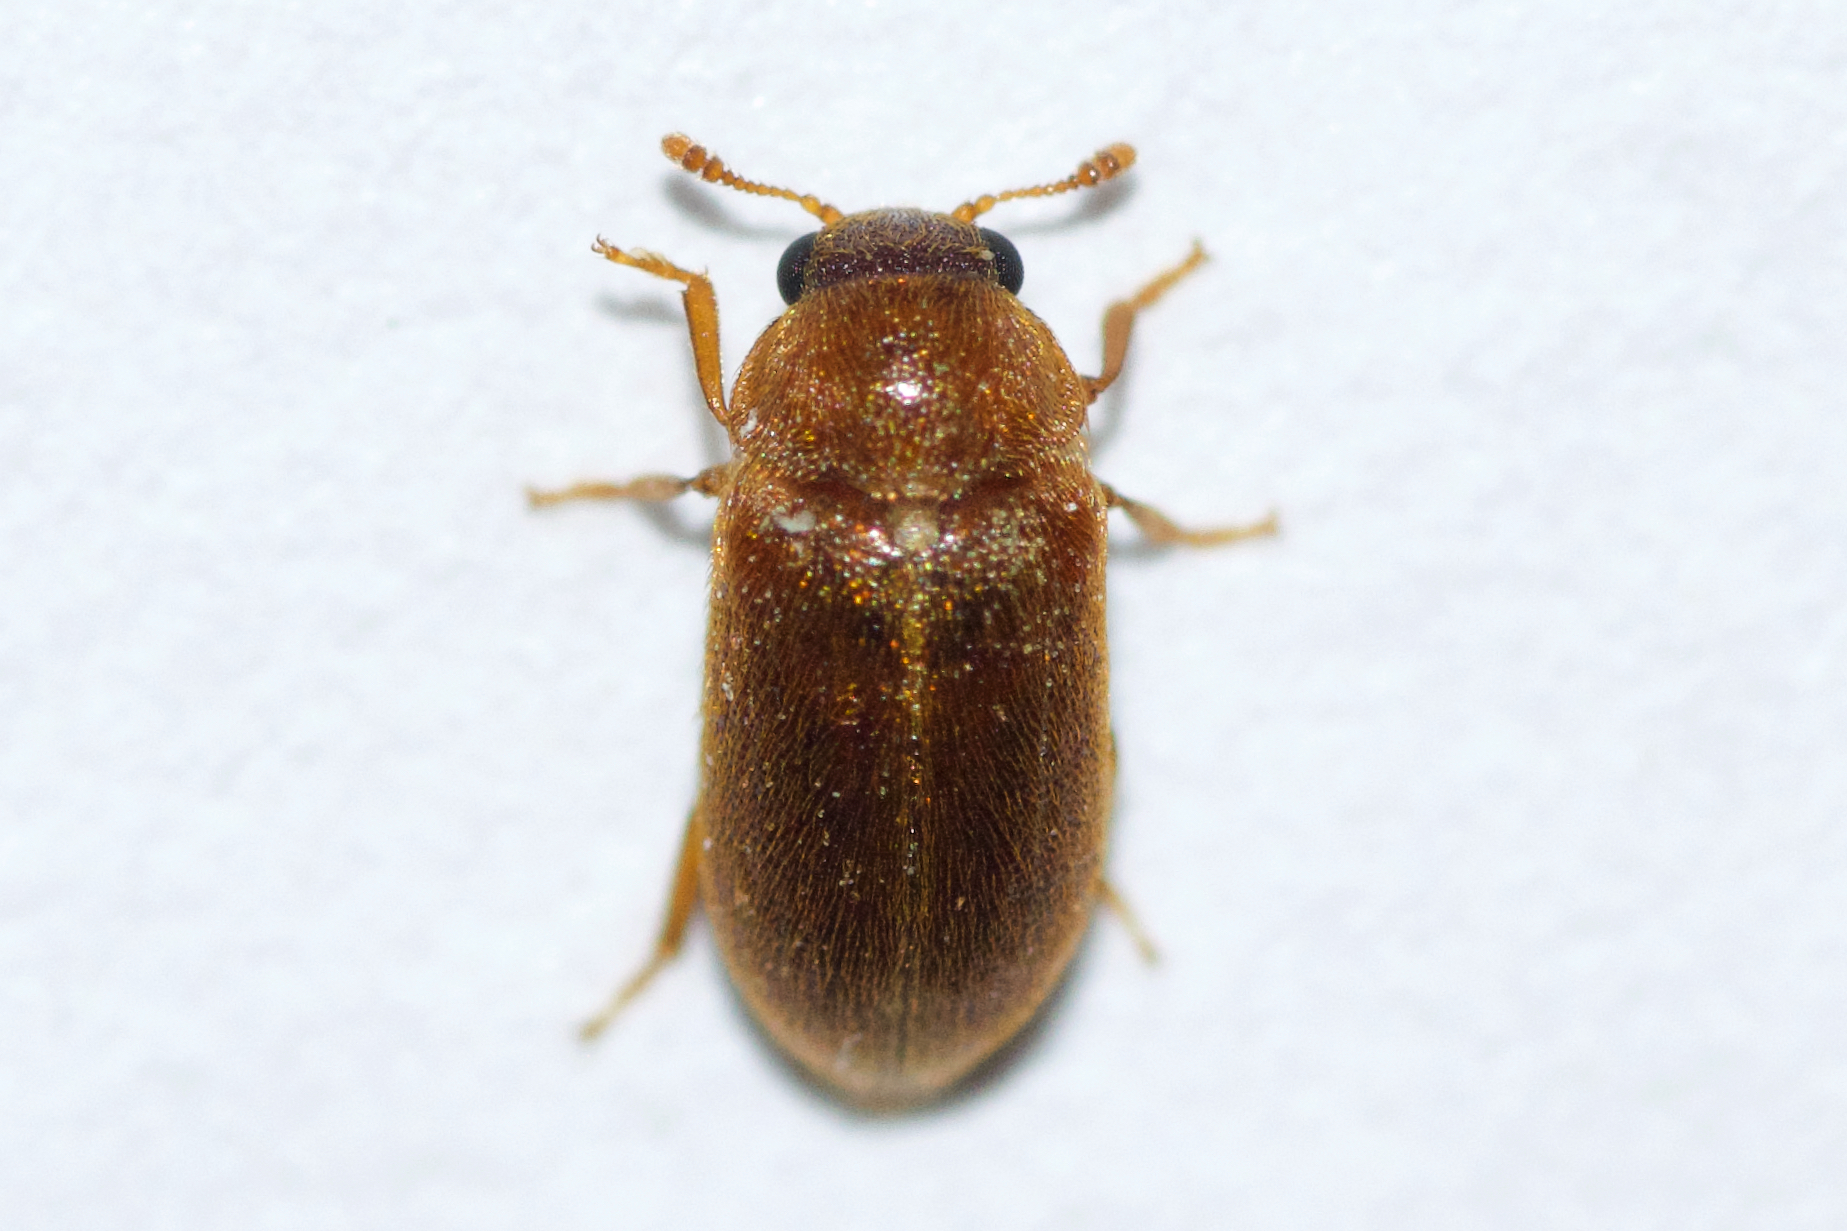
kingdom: Animalia
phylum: Arthropoda
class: Insecta
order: Coleoptera
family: Byturidae
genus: Byturus
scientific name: Byturus unicolor
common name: Raspberry fruitworm beetle
